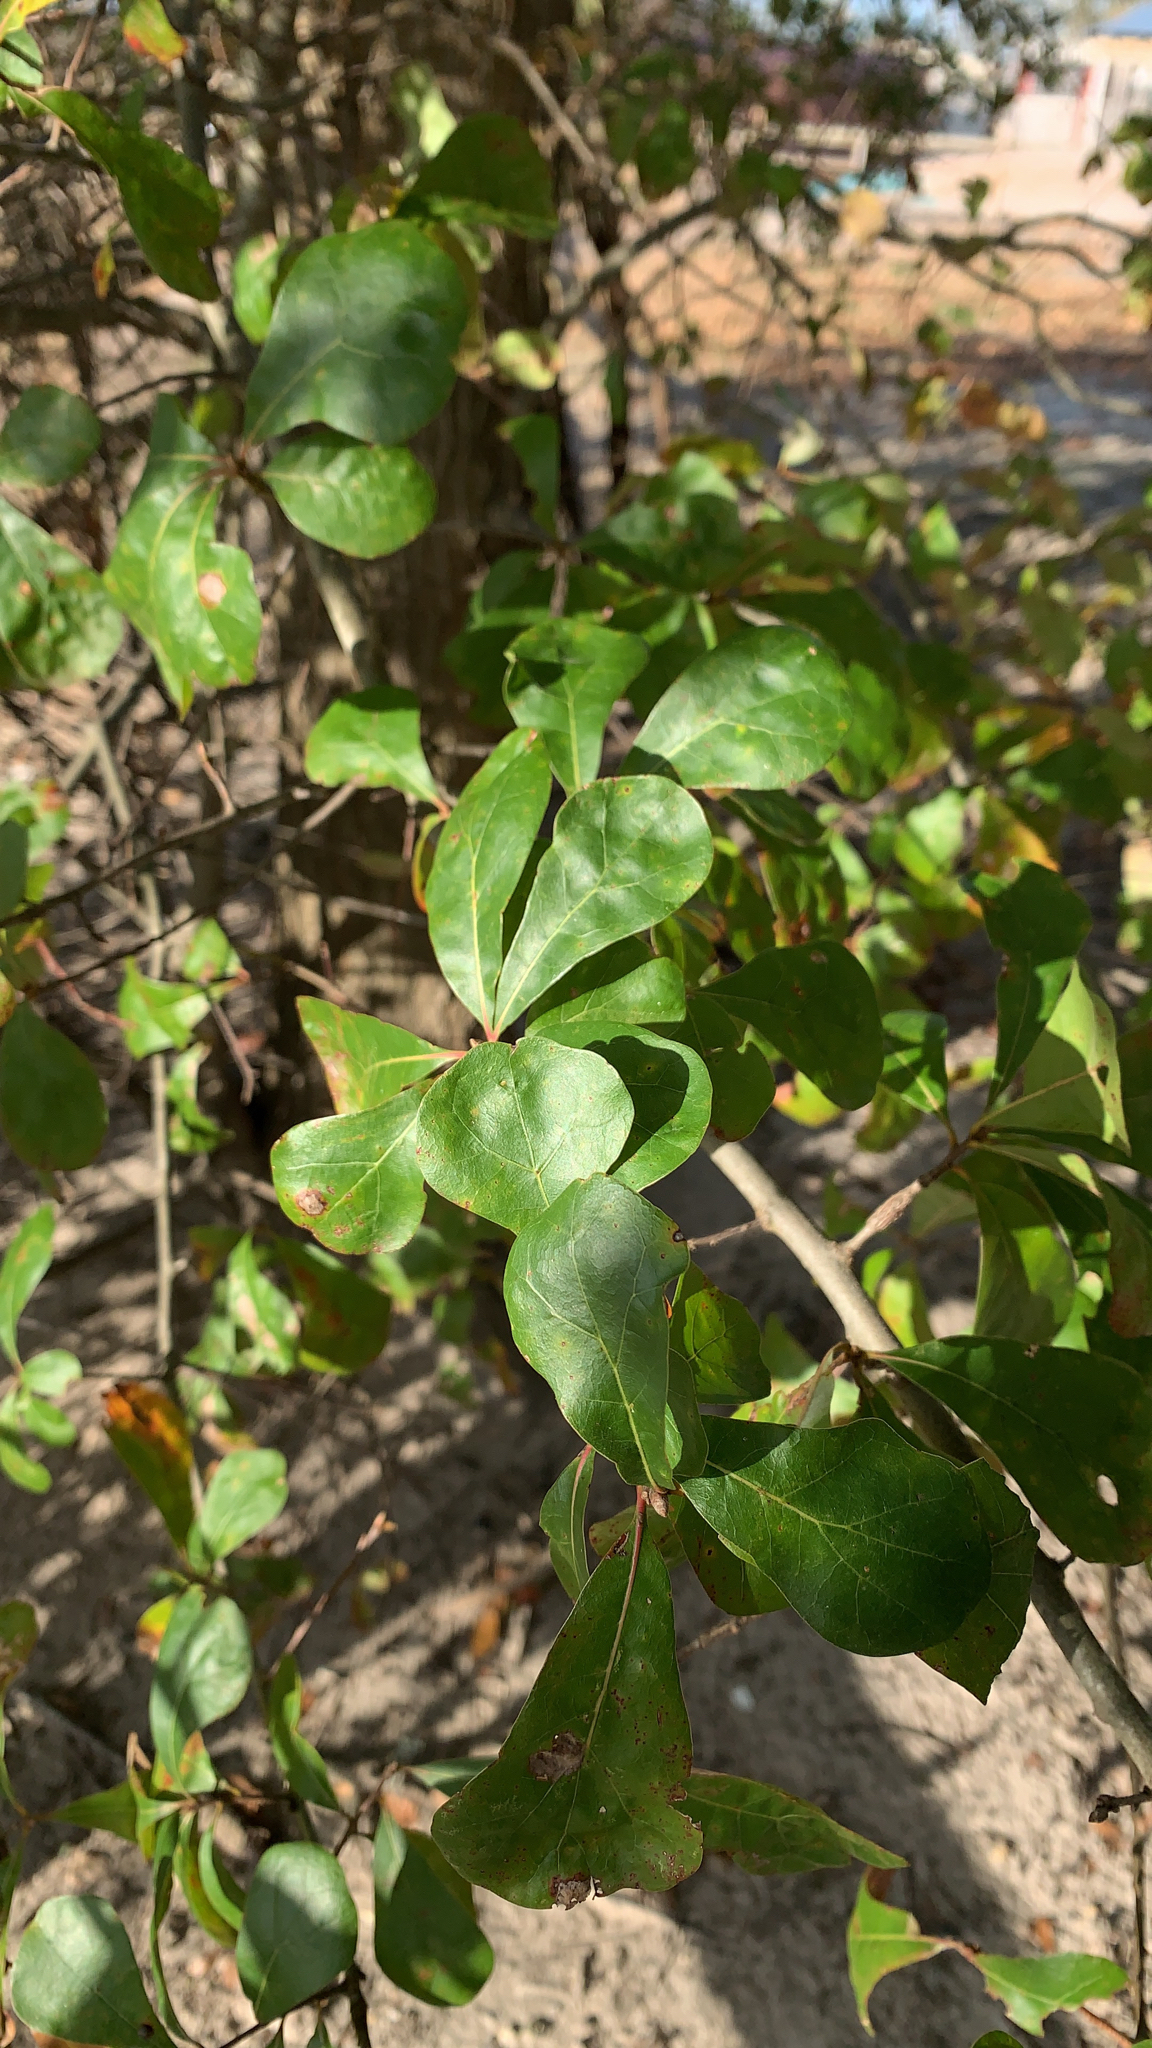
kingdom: Plantae
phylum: Tracheophyta
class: Magnoliopsida
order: Fagales
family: Fagaceae
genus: Quercus
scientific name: Quercus nigra
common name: Water oak
